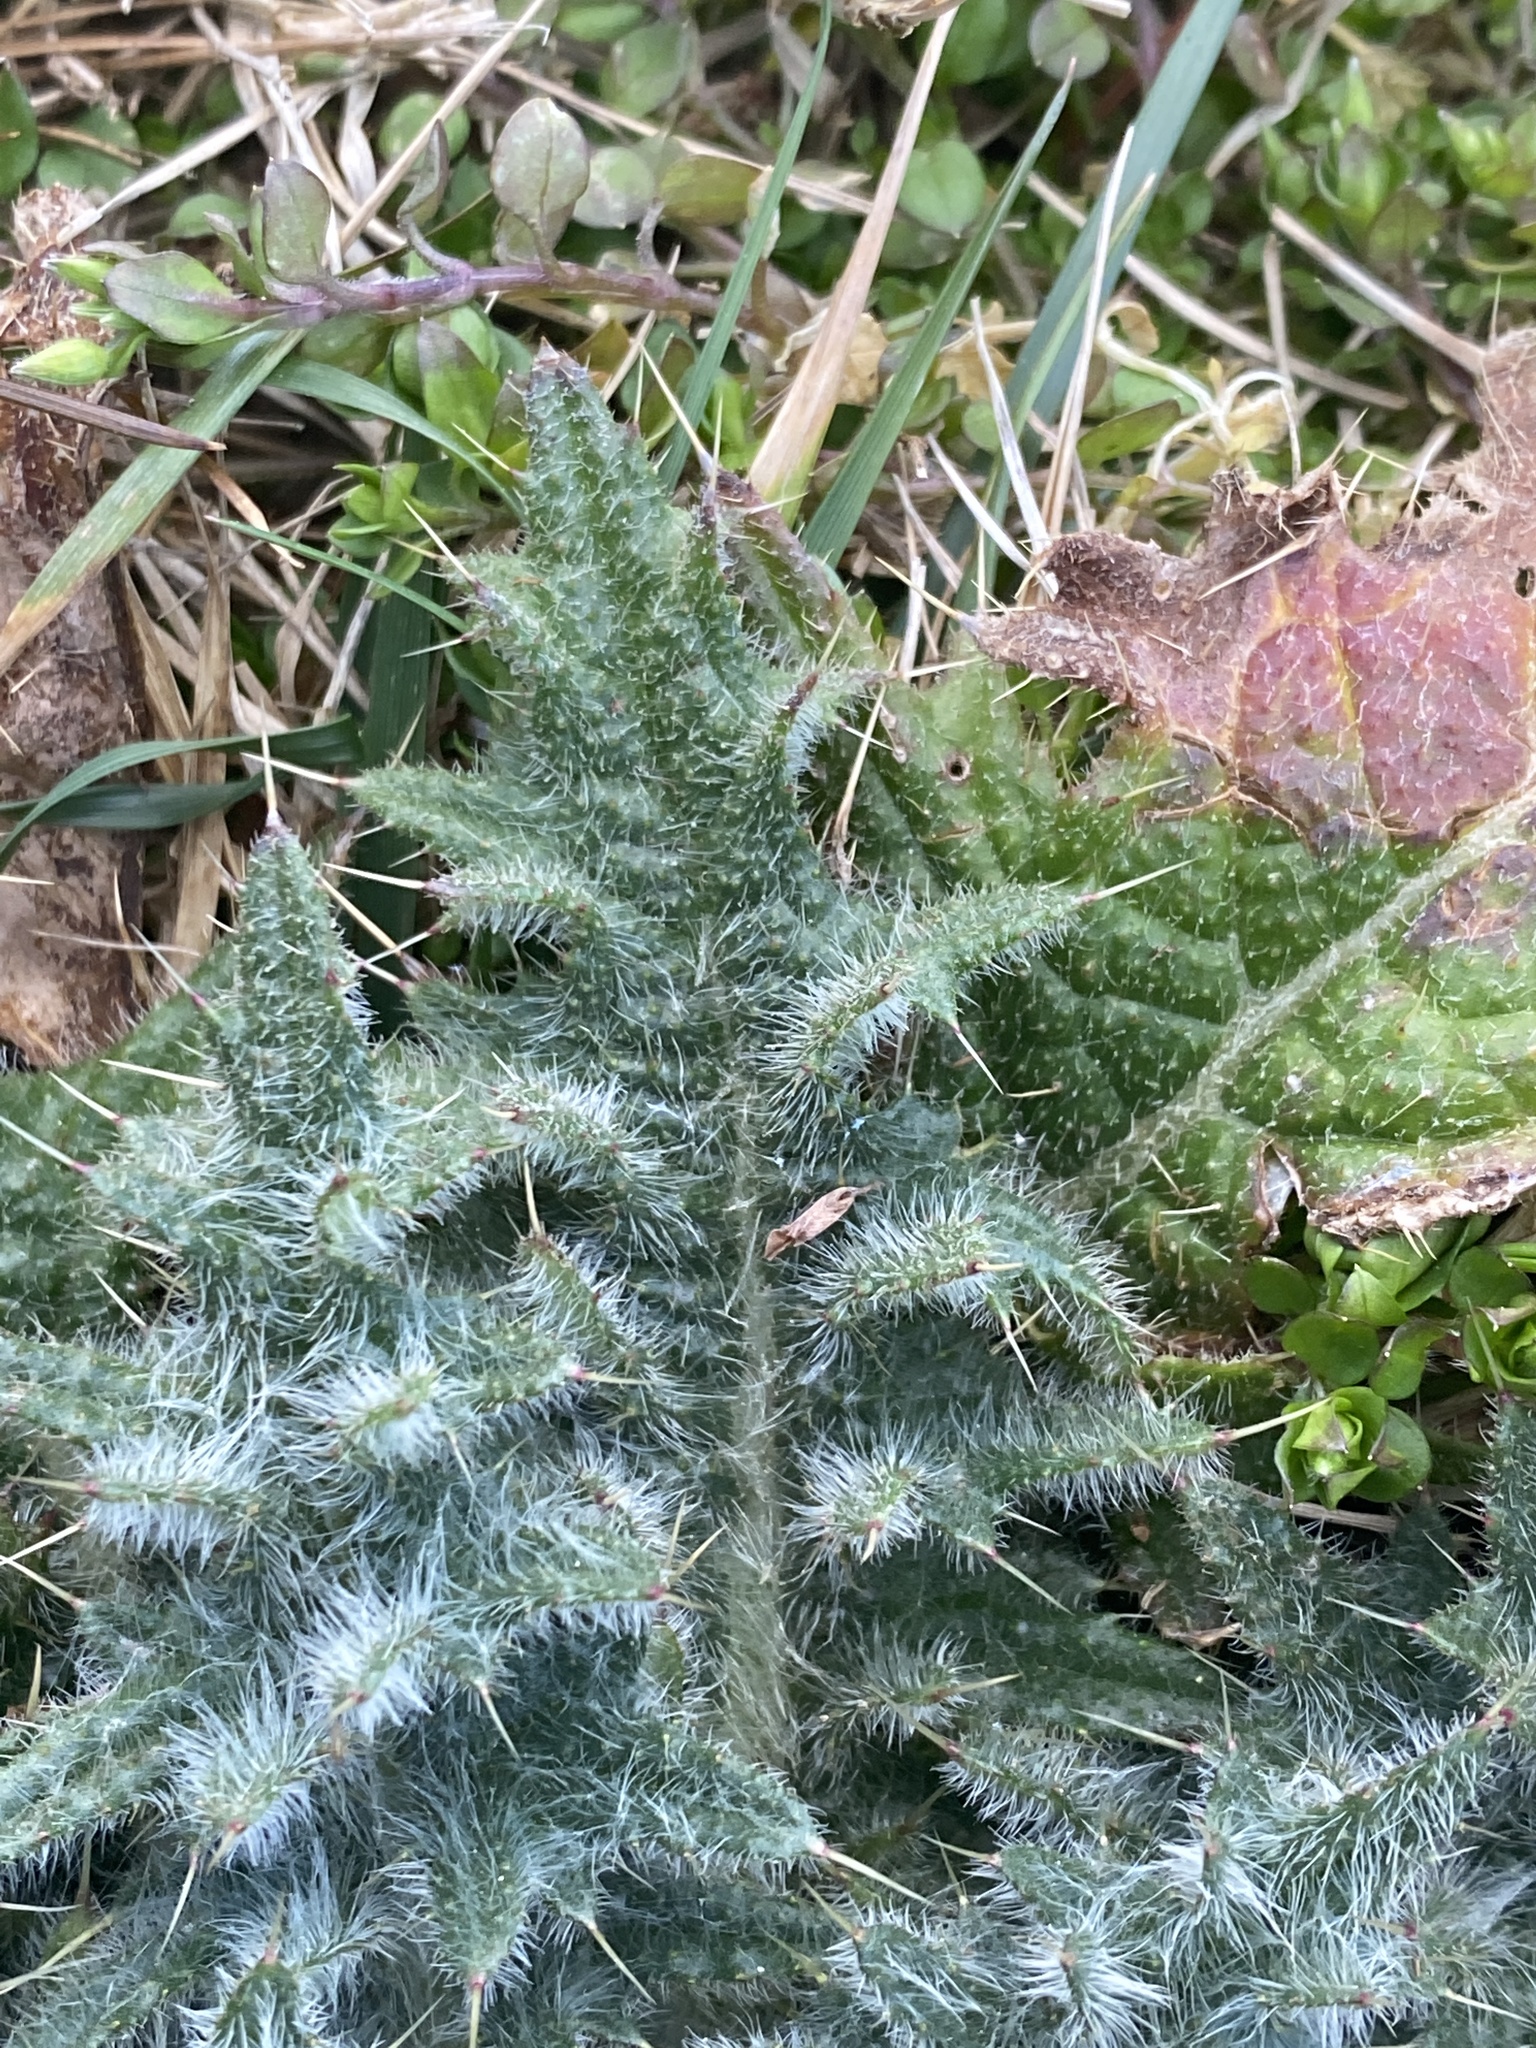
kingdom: Plantae
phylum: Tracheophyta
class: Magnoliopsida
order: Asterales
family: Asteraceae
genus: Cirsium
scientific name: Cirsium vulgare
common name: Bull thistle
